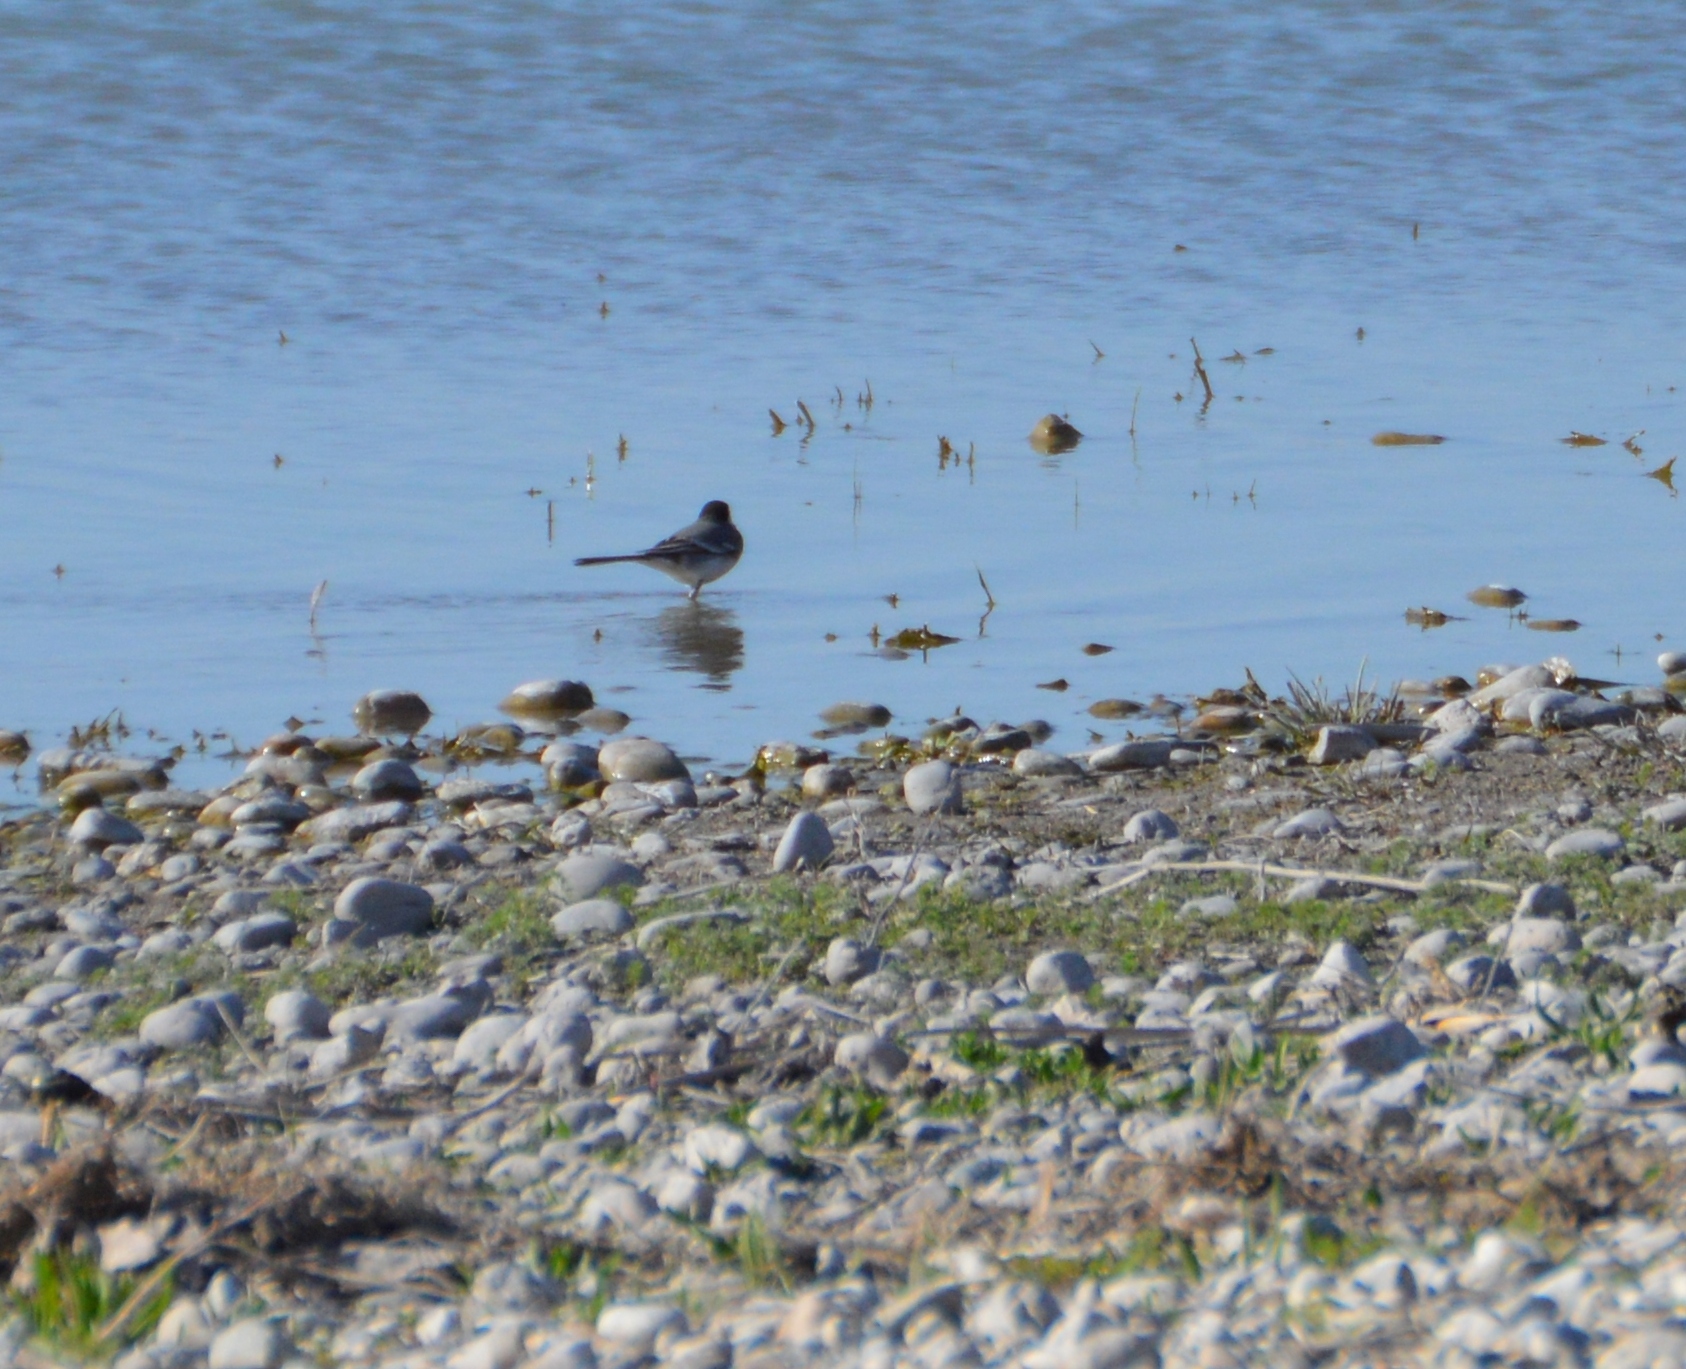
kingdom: Animalia
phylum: Chordata
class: Aves
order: Passeriformes
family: Motacillidae
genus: Motacilla
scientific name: Motacilla alba
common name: White wagtail
